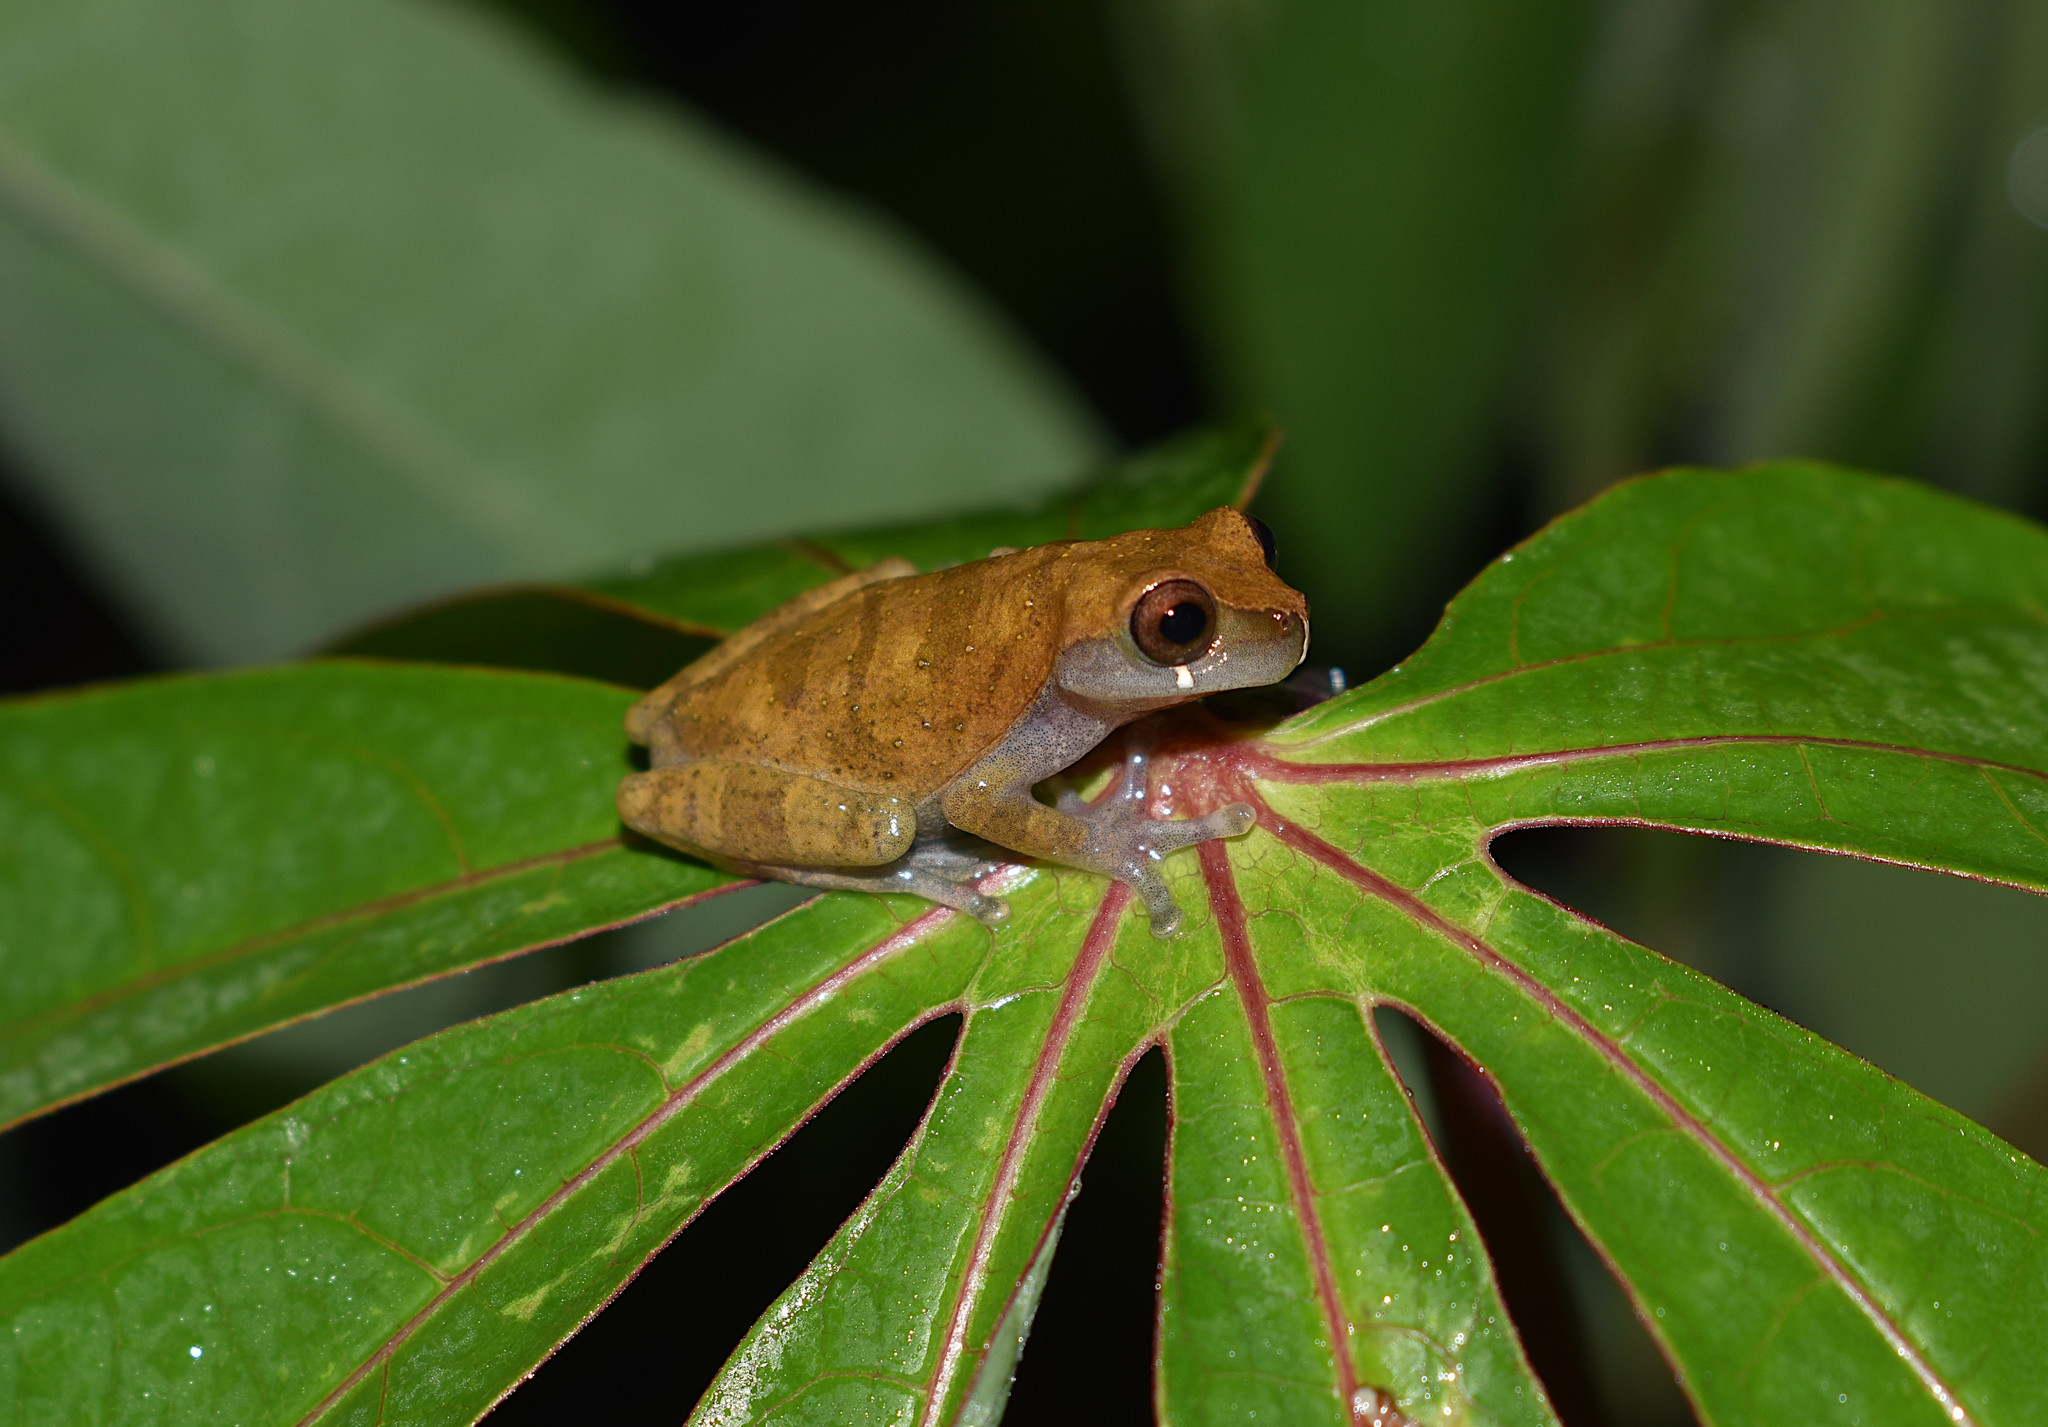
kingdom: Animalia
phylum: Chordata
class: Amphibia
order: Anura
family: Hylidae
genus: Dendropsophus
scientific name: Dendropsophus pauiniensis
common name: Pauini treefrog
